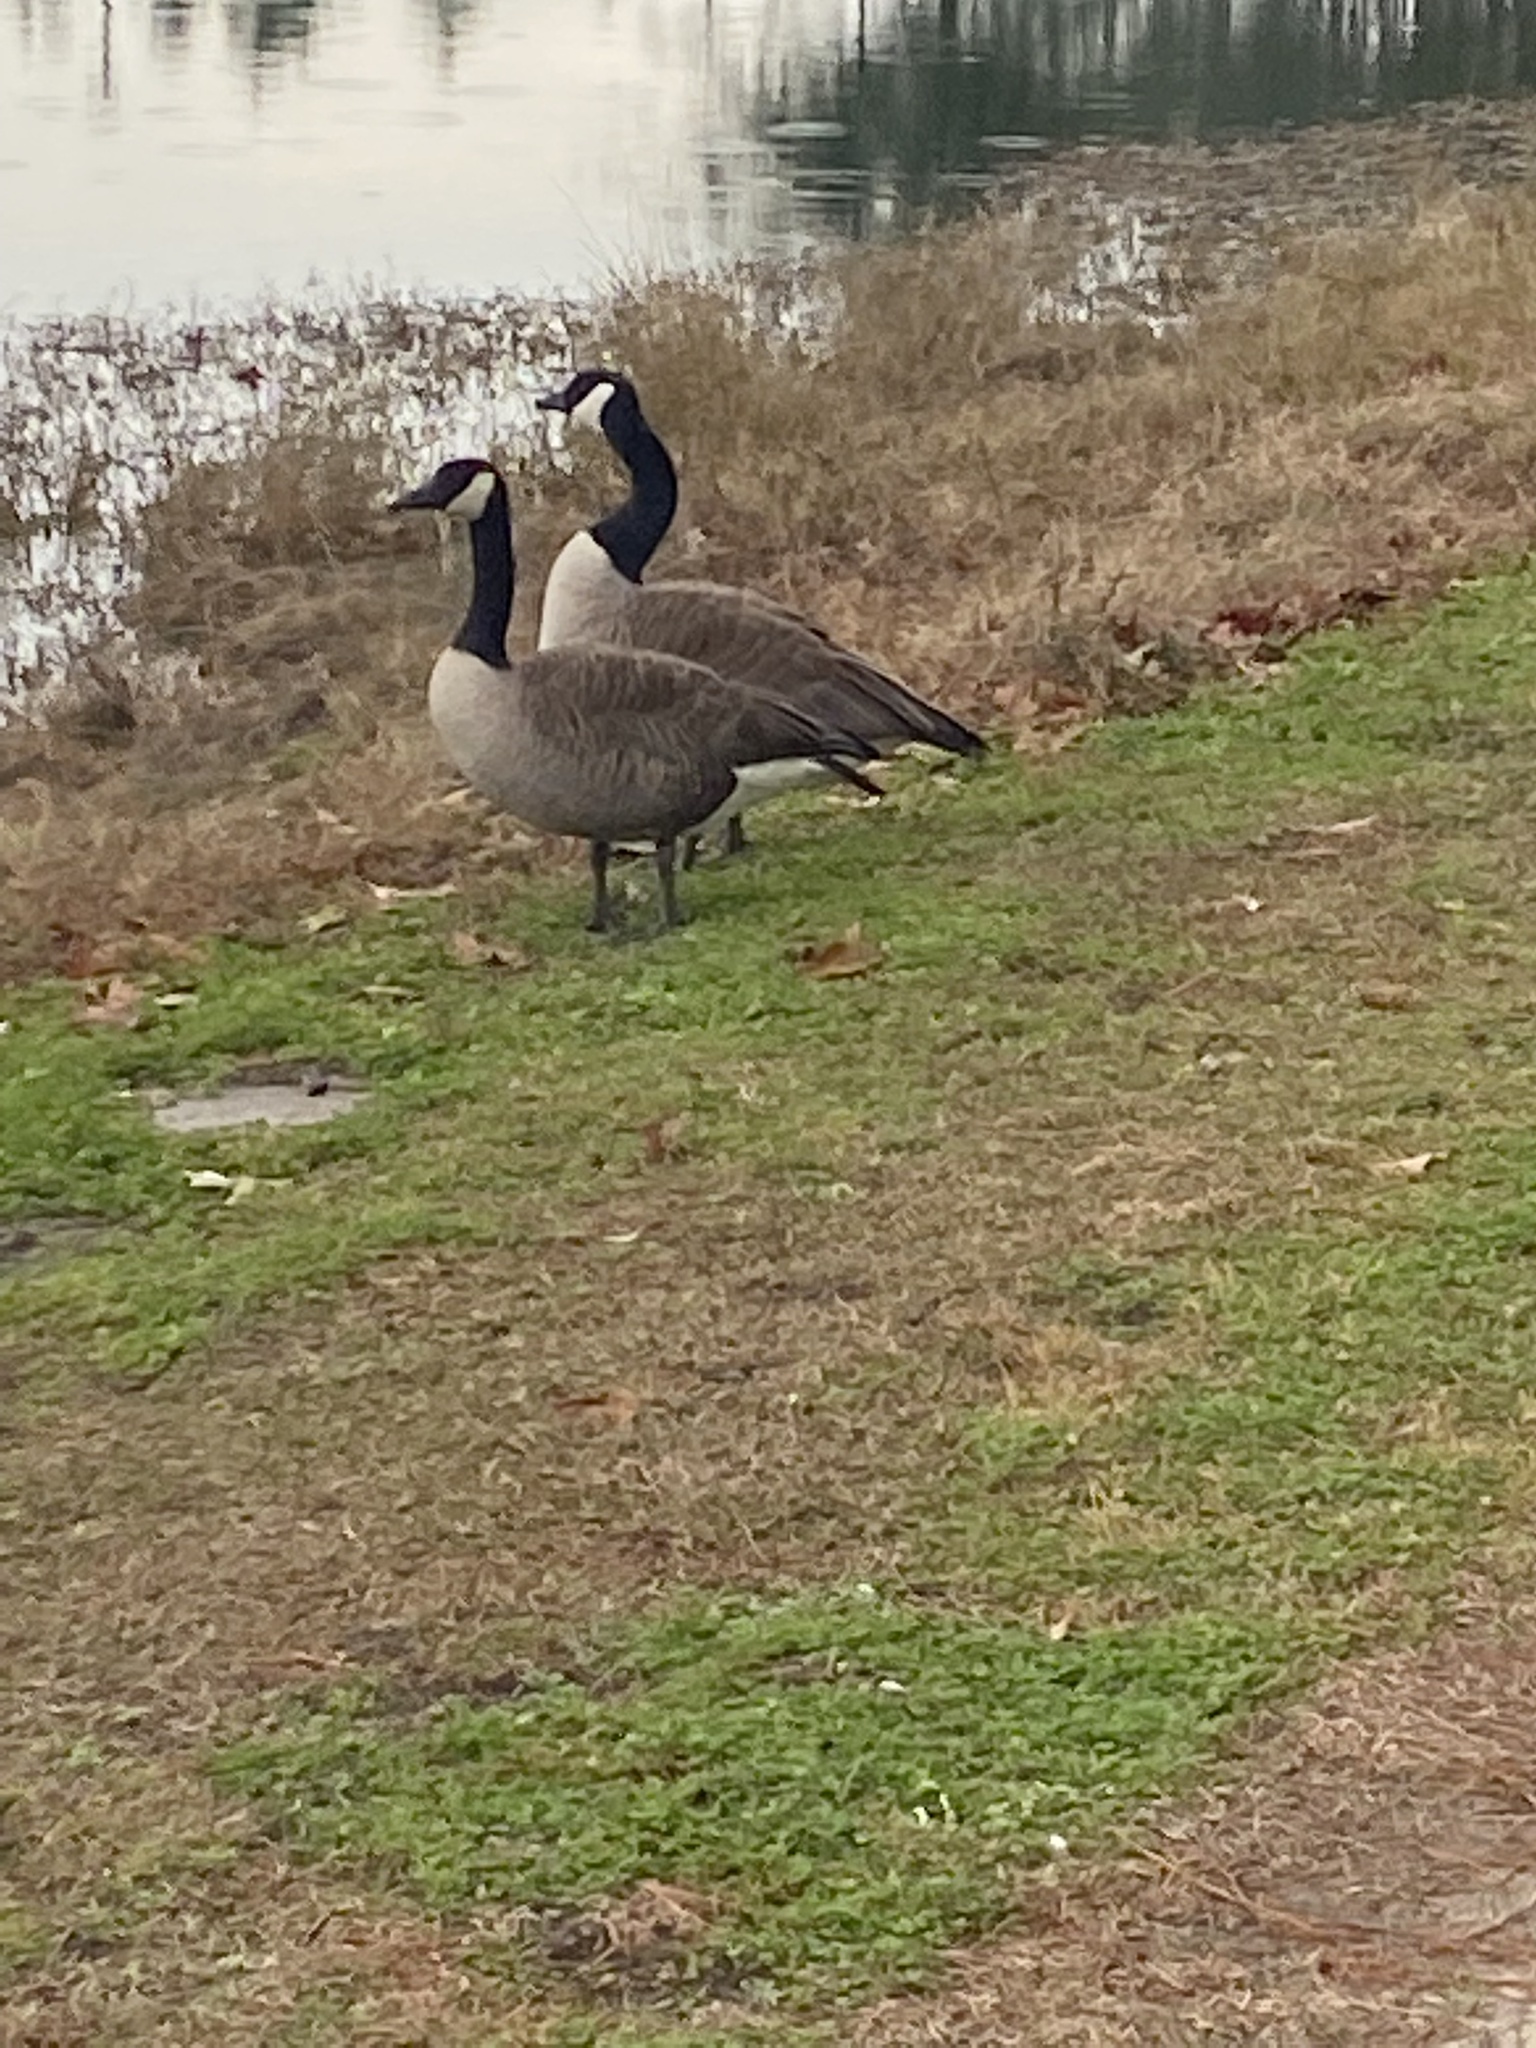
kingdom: Animalia
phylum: Chordata
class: Aves
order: Anseriformes
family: Anatidae
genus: Branta
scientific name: Branta canadensis
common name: Canada goose
